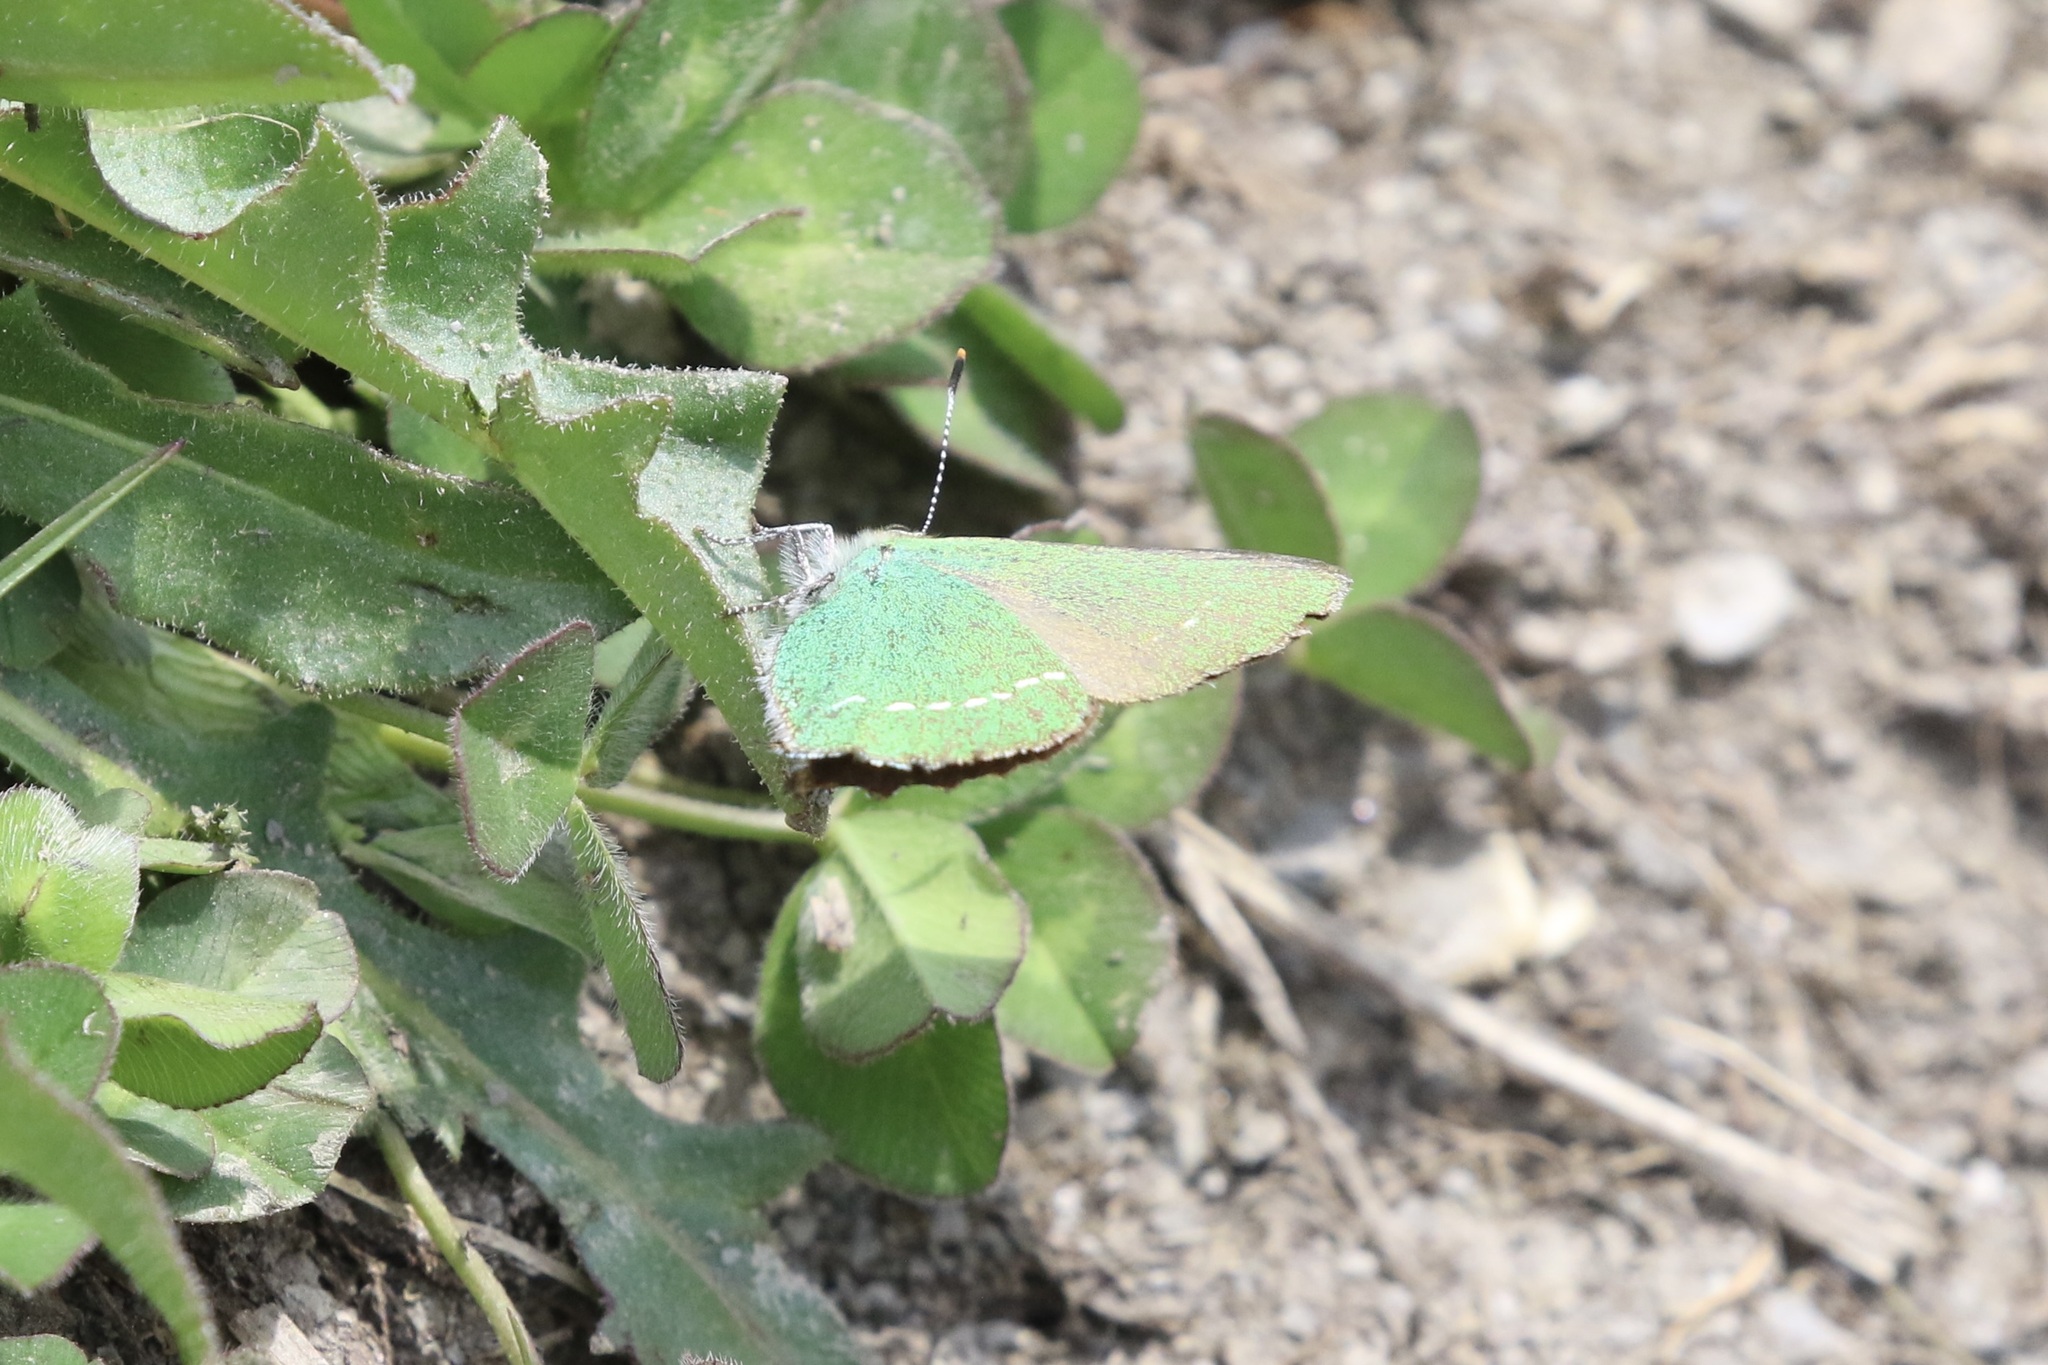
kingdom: Animalia
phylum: Arthropoda
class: Insecta
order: Lepidoptera
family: Lycaenidae
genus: Callophrys
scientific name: Callophrys rubi
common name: Green hairstreak
